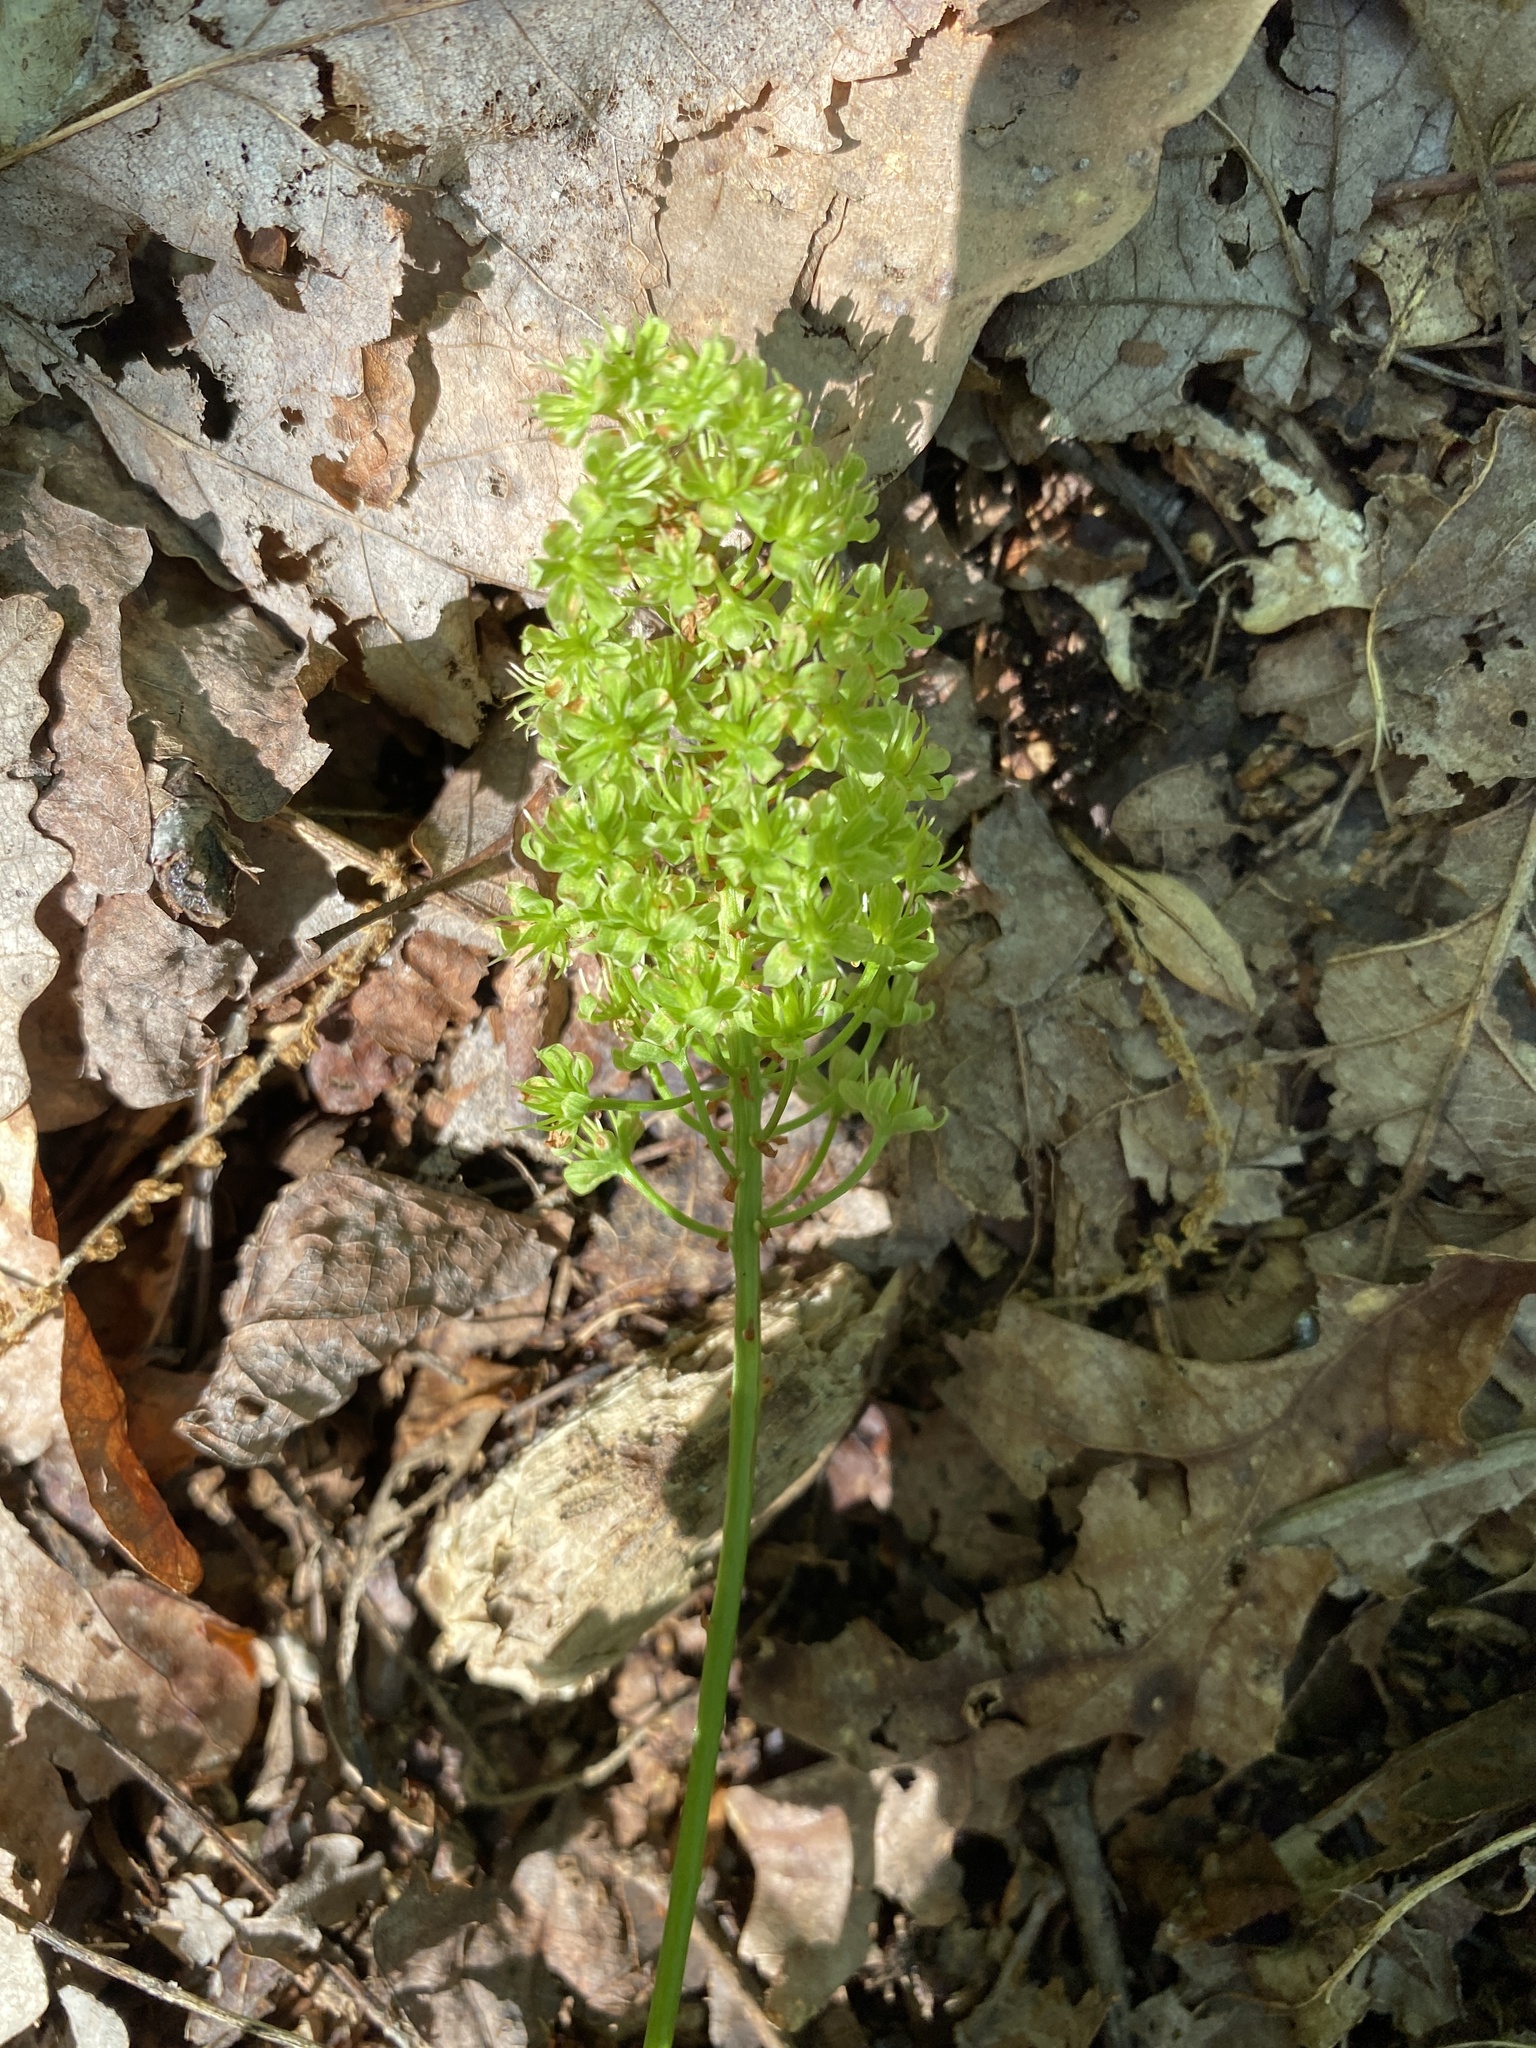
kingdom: Plantae
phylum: Tracheophyta
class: Liliopsida
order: Liliales
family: Melanthiaceae
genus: Amianthium
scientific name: Amianthium muscitoxicum
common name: Fly-poison
